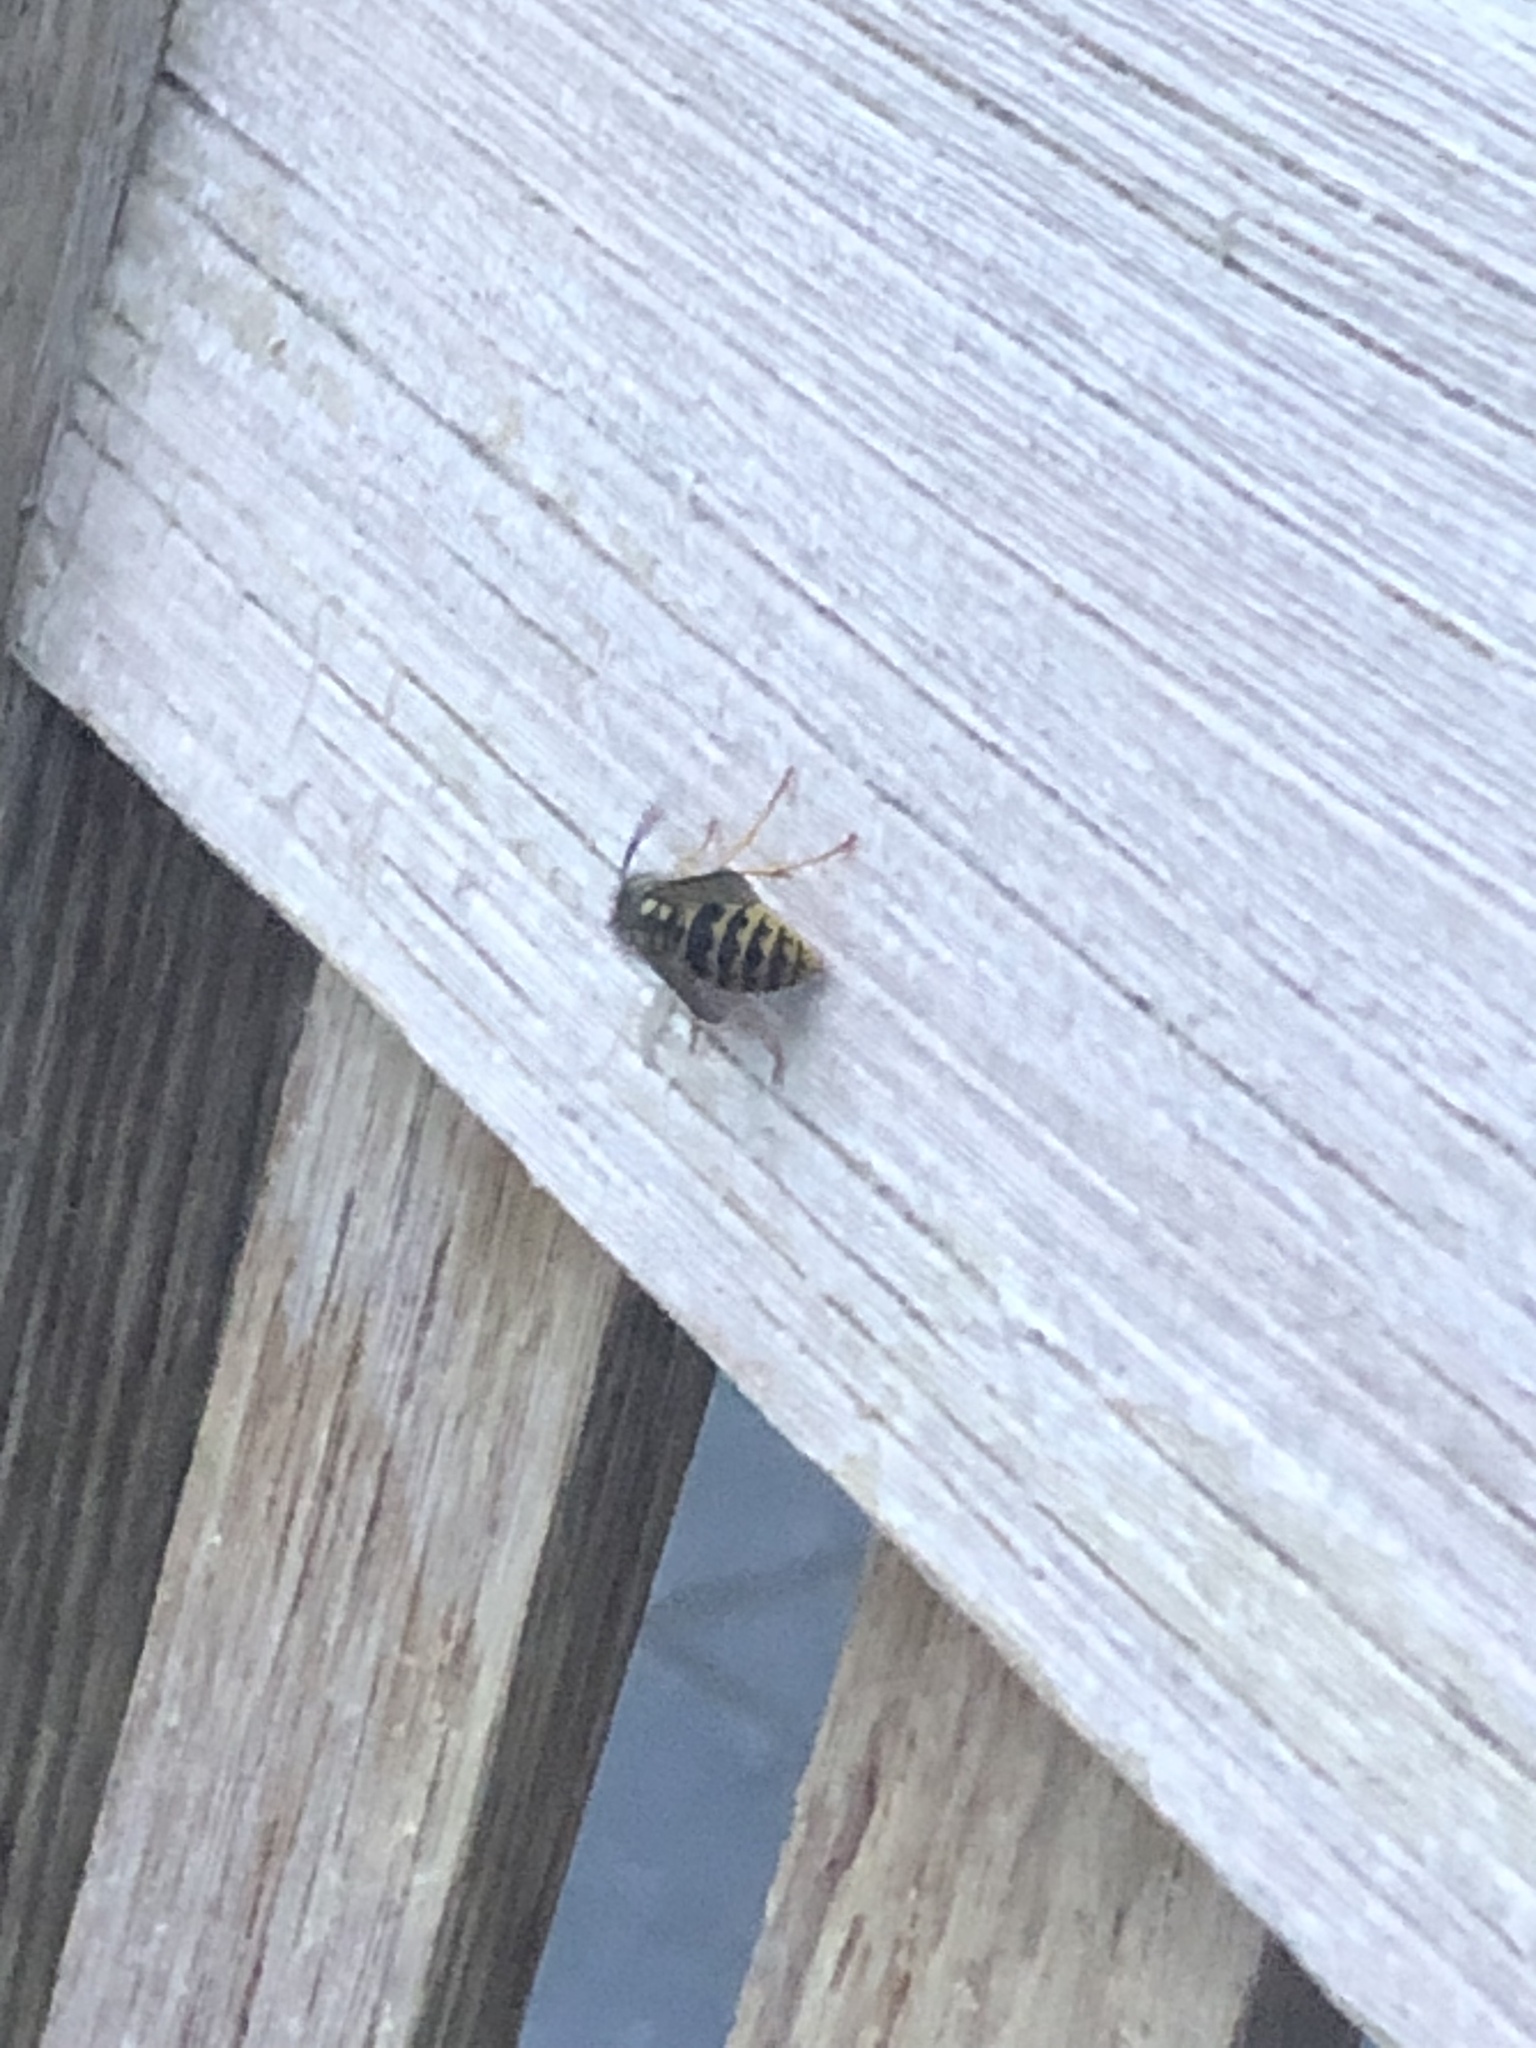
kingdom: Animalia
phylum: Arthropoda
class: Insecta
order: Hymenoptera
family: Vespidae
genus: Vespula
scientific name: Vespula germanica
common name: German wasp
